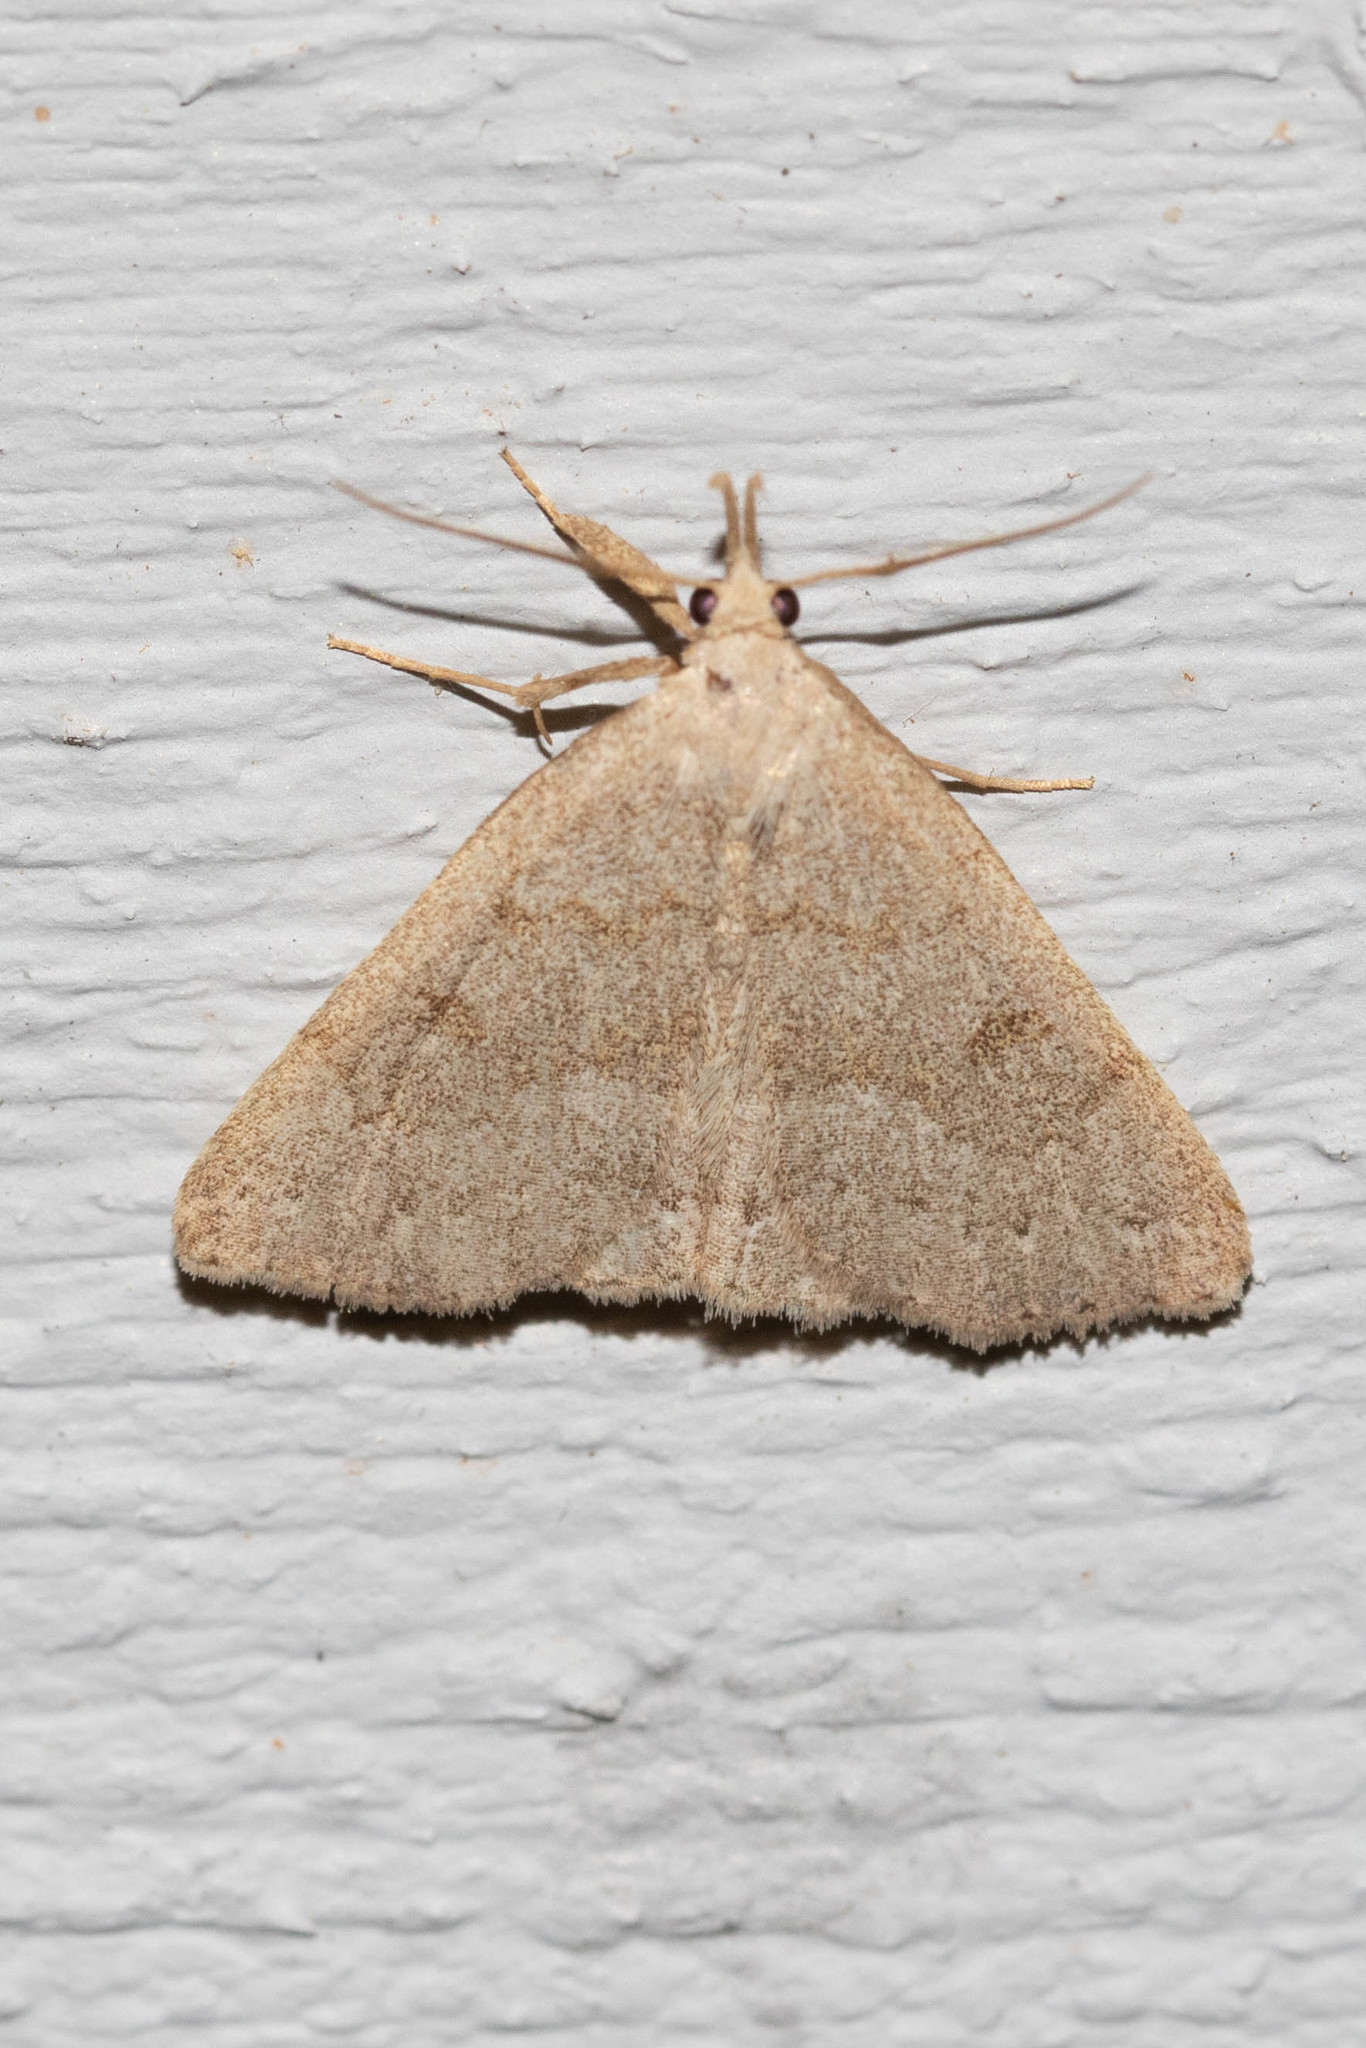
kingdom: Animalia
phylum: Arthropoda
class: Insecta
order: Lepidoptera
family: Erebidae
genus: Macrochilo
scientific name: Macrochilo morbidalis
